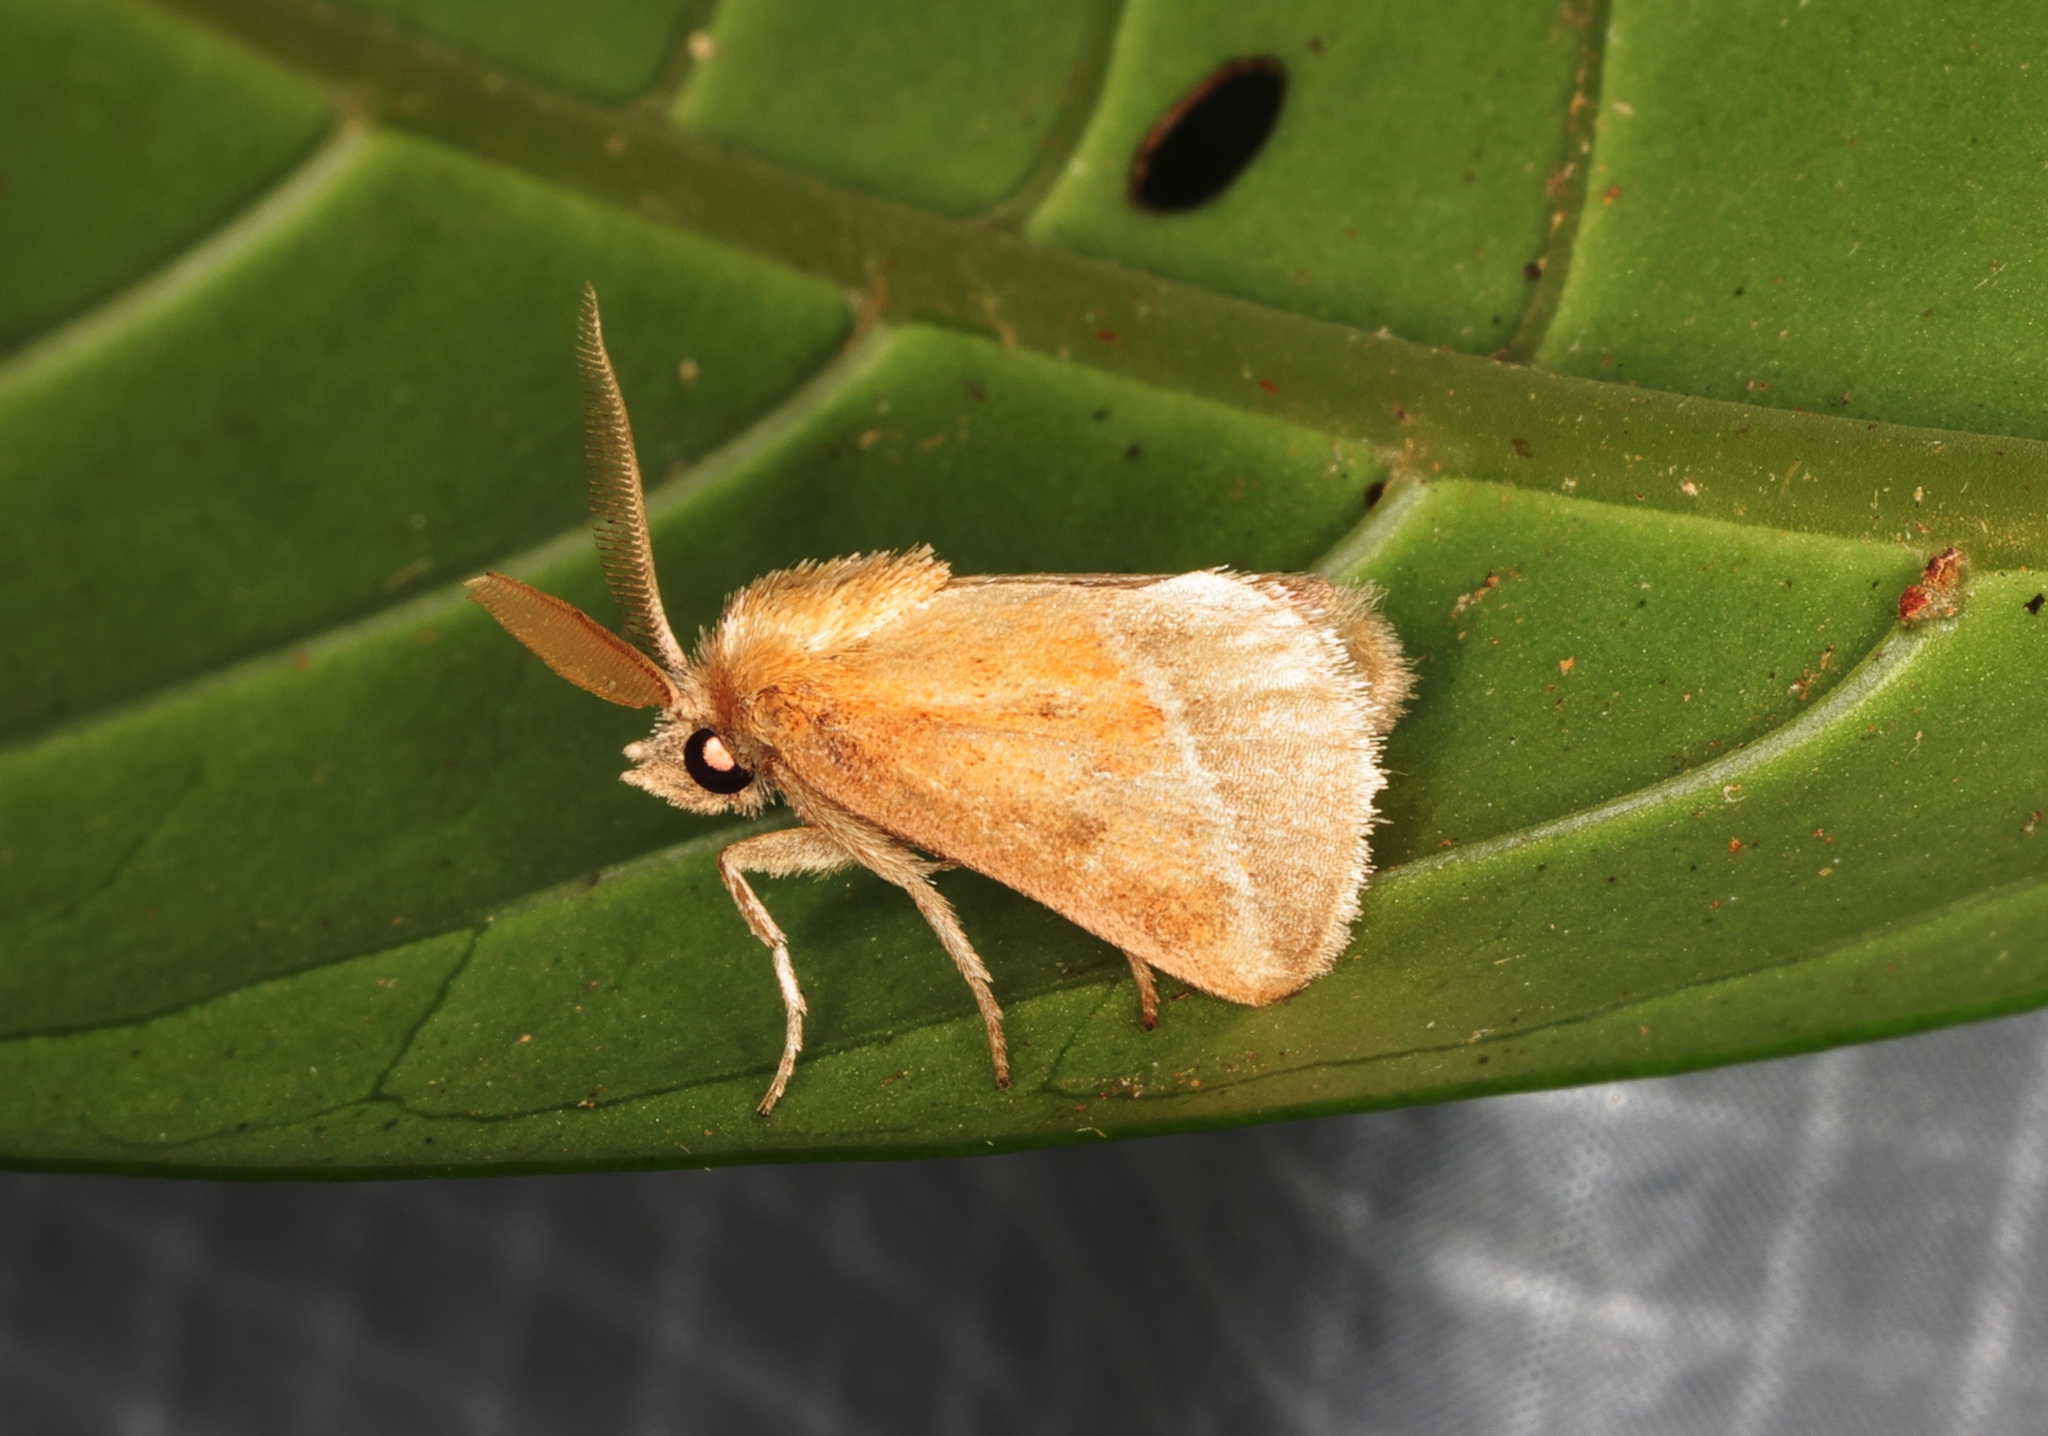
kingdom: Animalia
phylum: Arthropoda
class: Insecta
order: Lepidoptera
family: Limacodidae
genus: Oxyplax
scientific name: Oxyplax pallivitta
